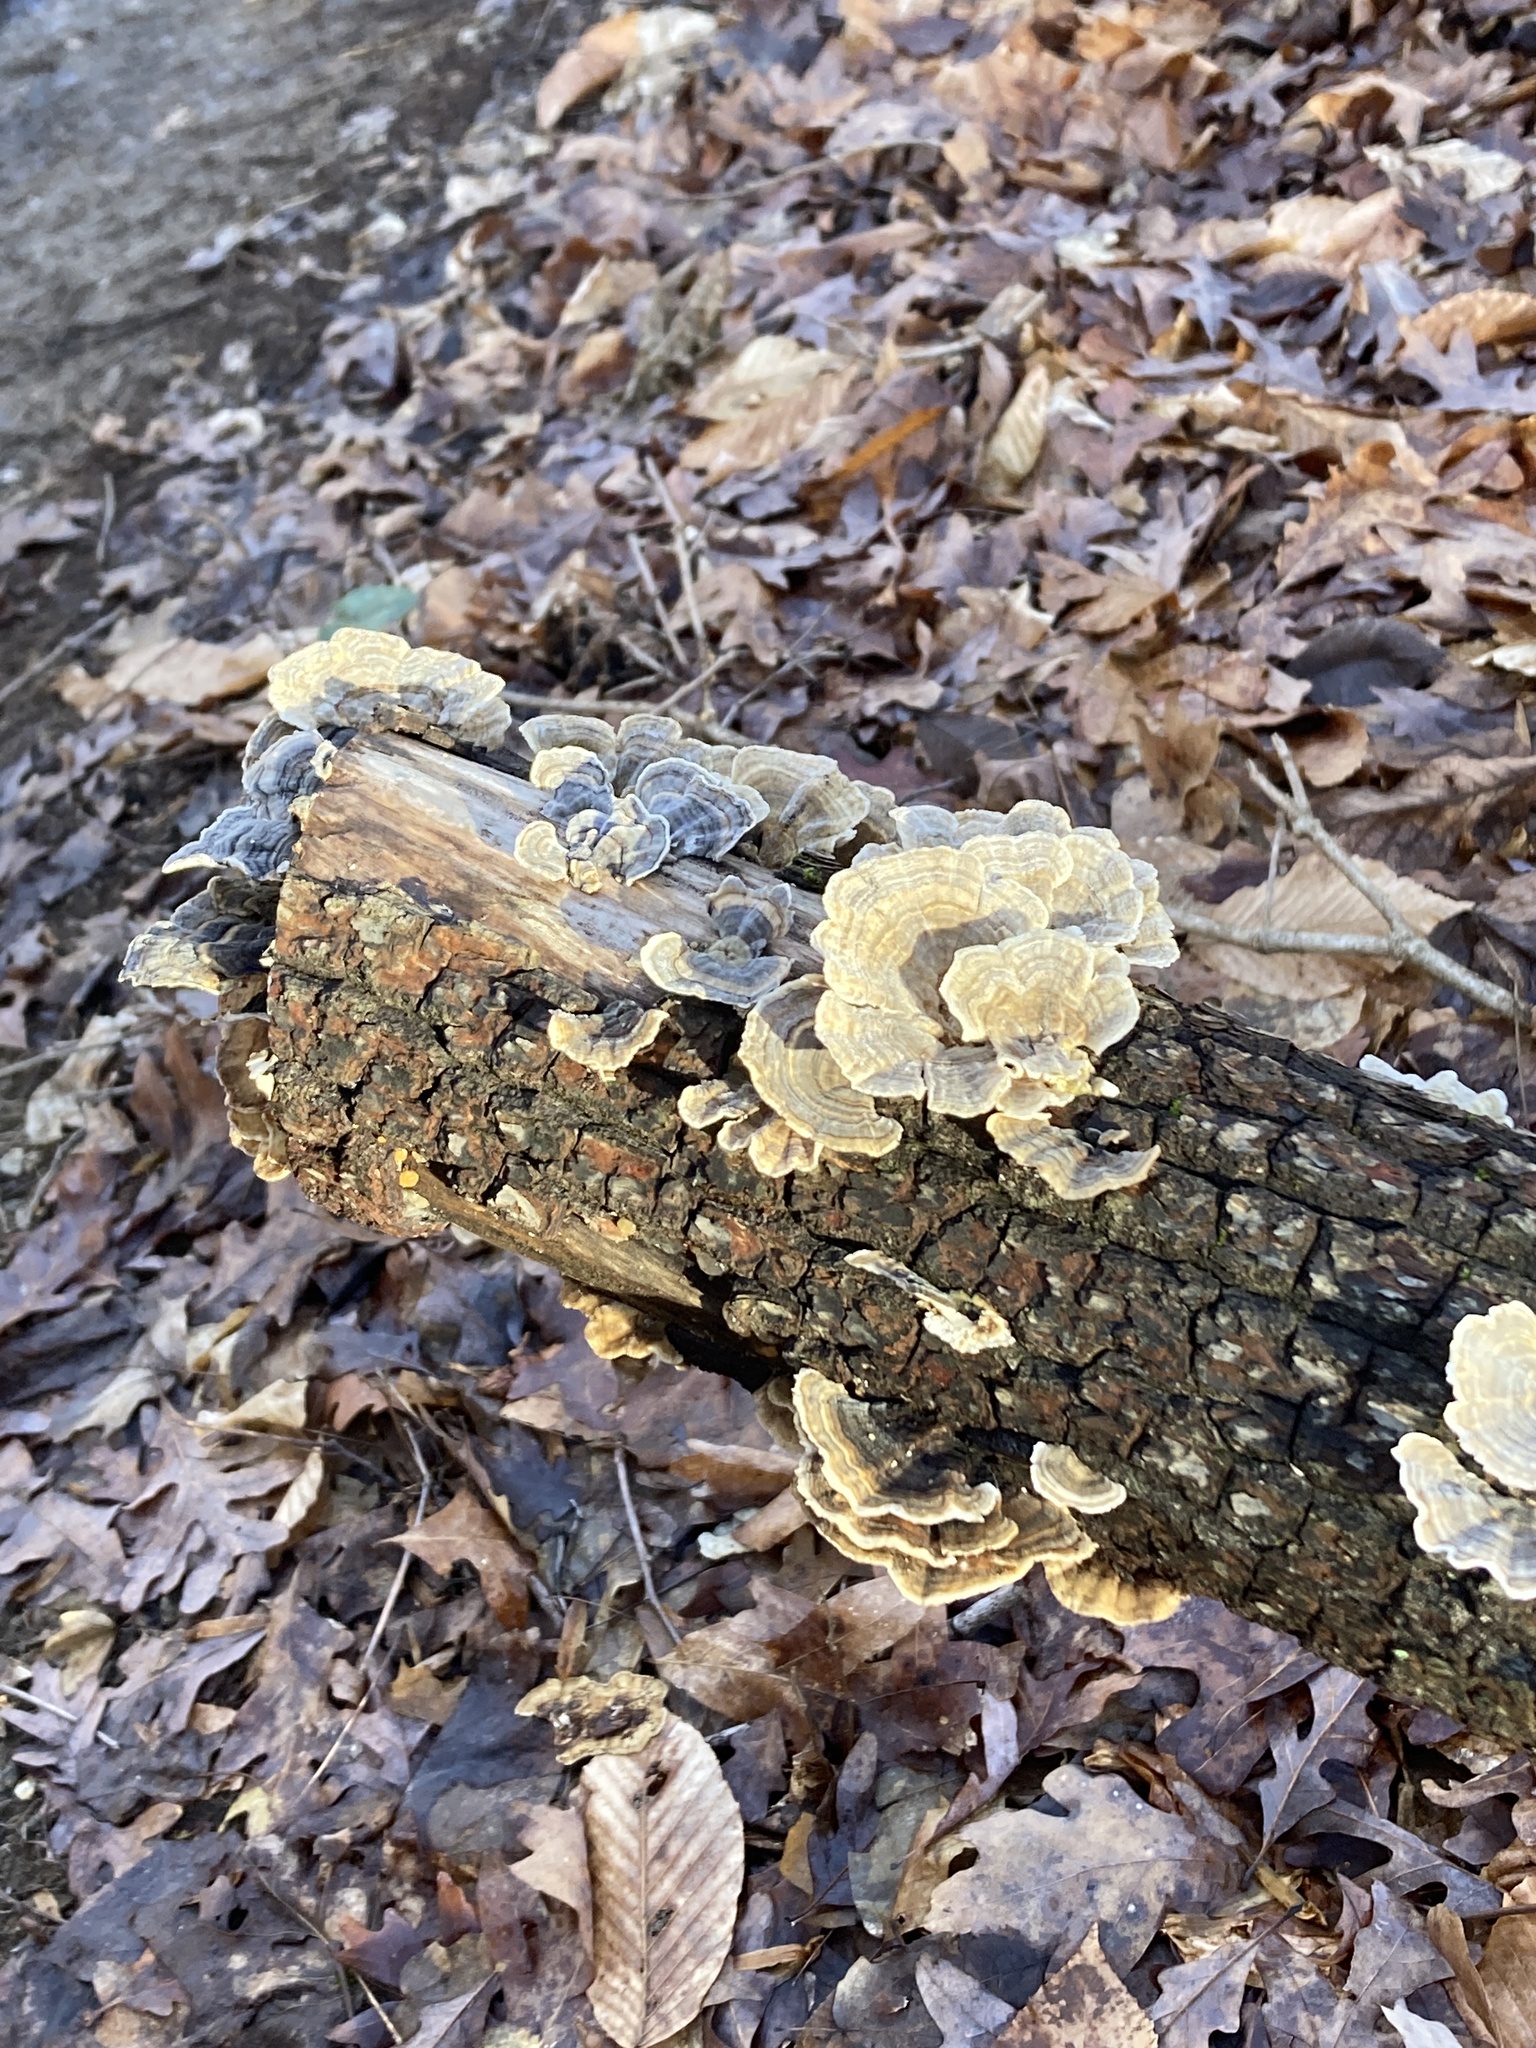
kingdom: Fungi
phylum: Basidiomycota
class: Agaricomycetes
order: Polyporales
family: Polyporaceae
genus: Trametes
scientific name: Trametes versicolor
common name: Turkeytail
